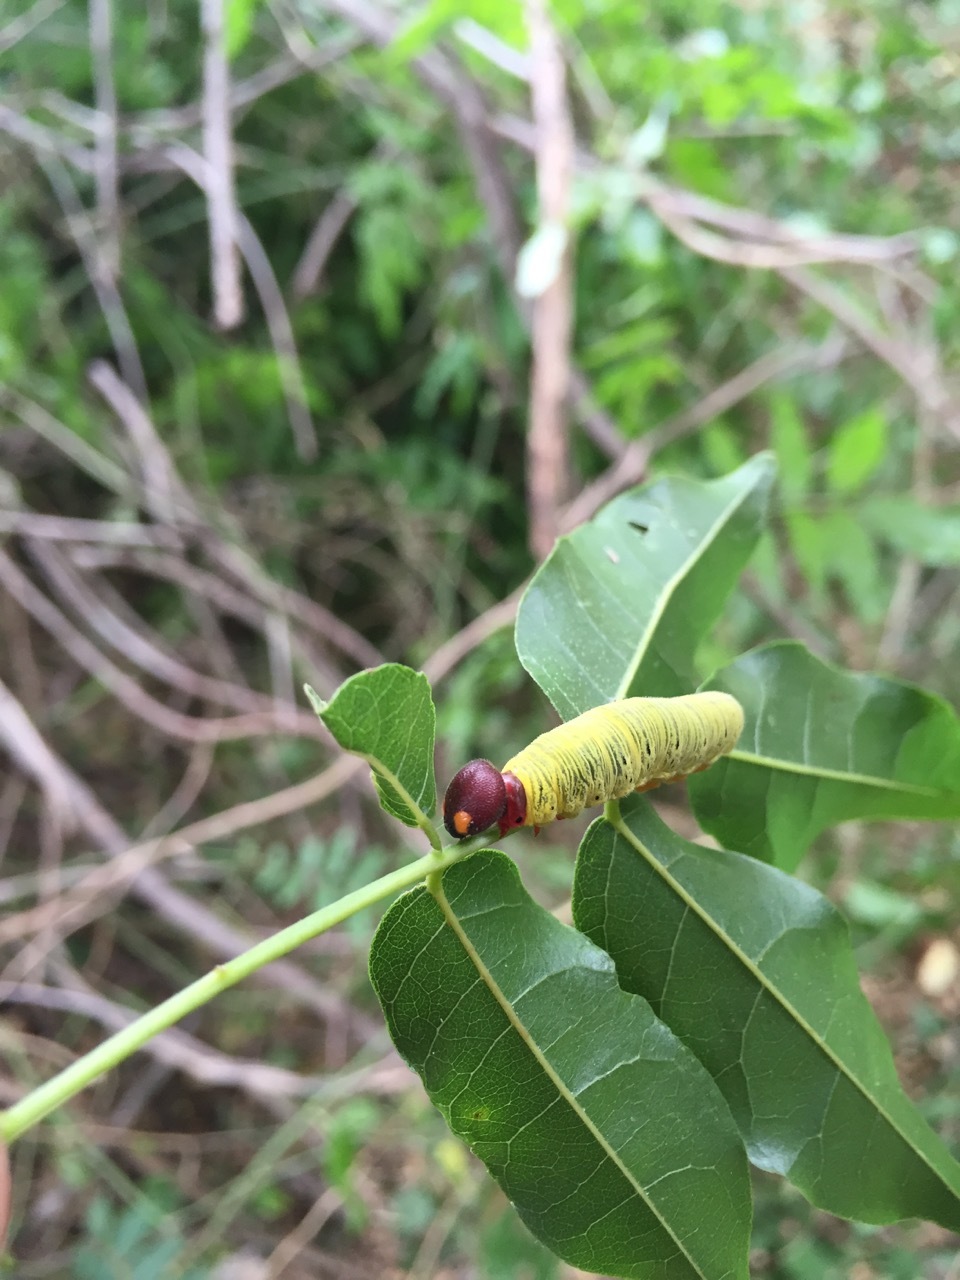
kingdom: Animalia
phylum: Arthropoda
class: Insecta
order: Lepidoptera
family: Hesperiidae
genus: Epargyreus
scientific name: Epargyreus clarus
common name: Silver-spotted skipper
